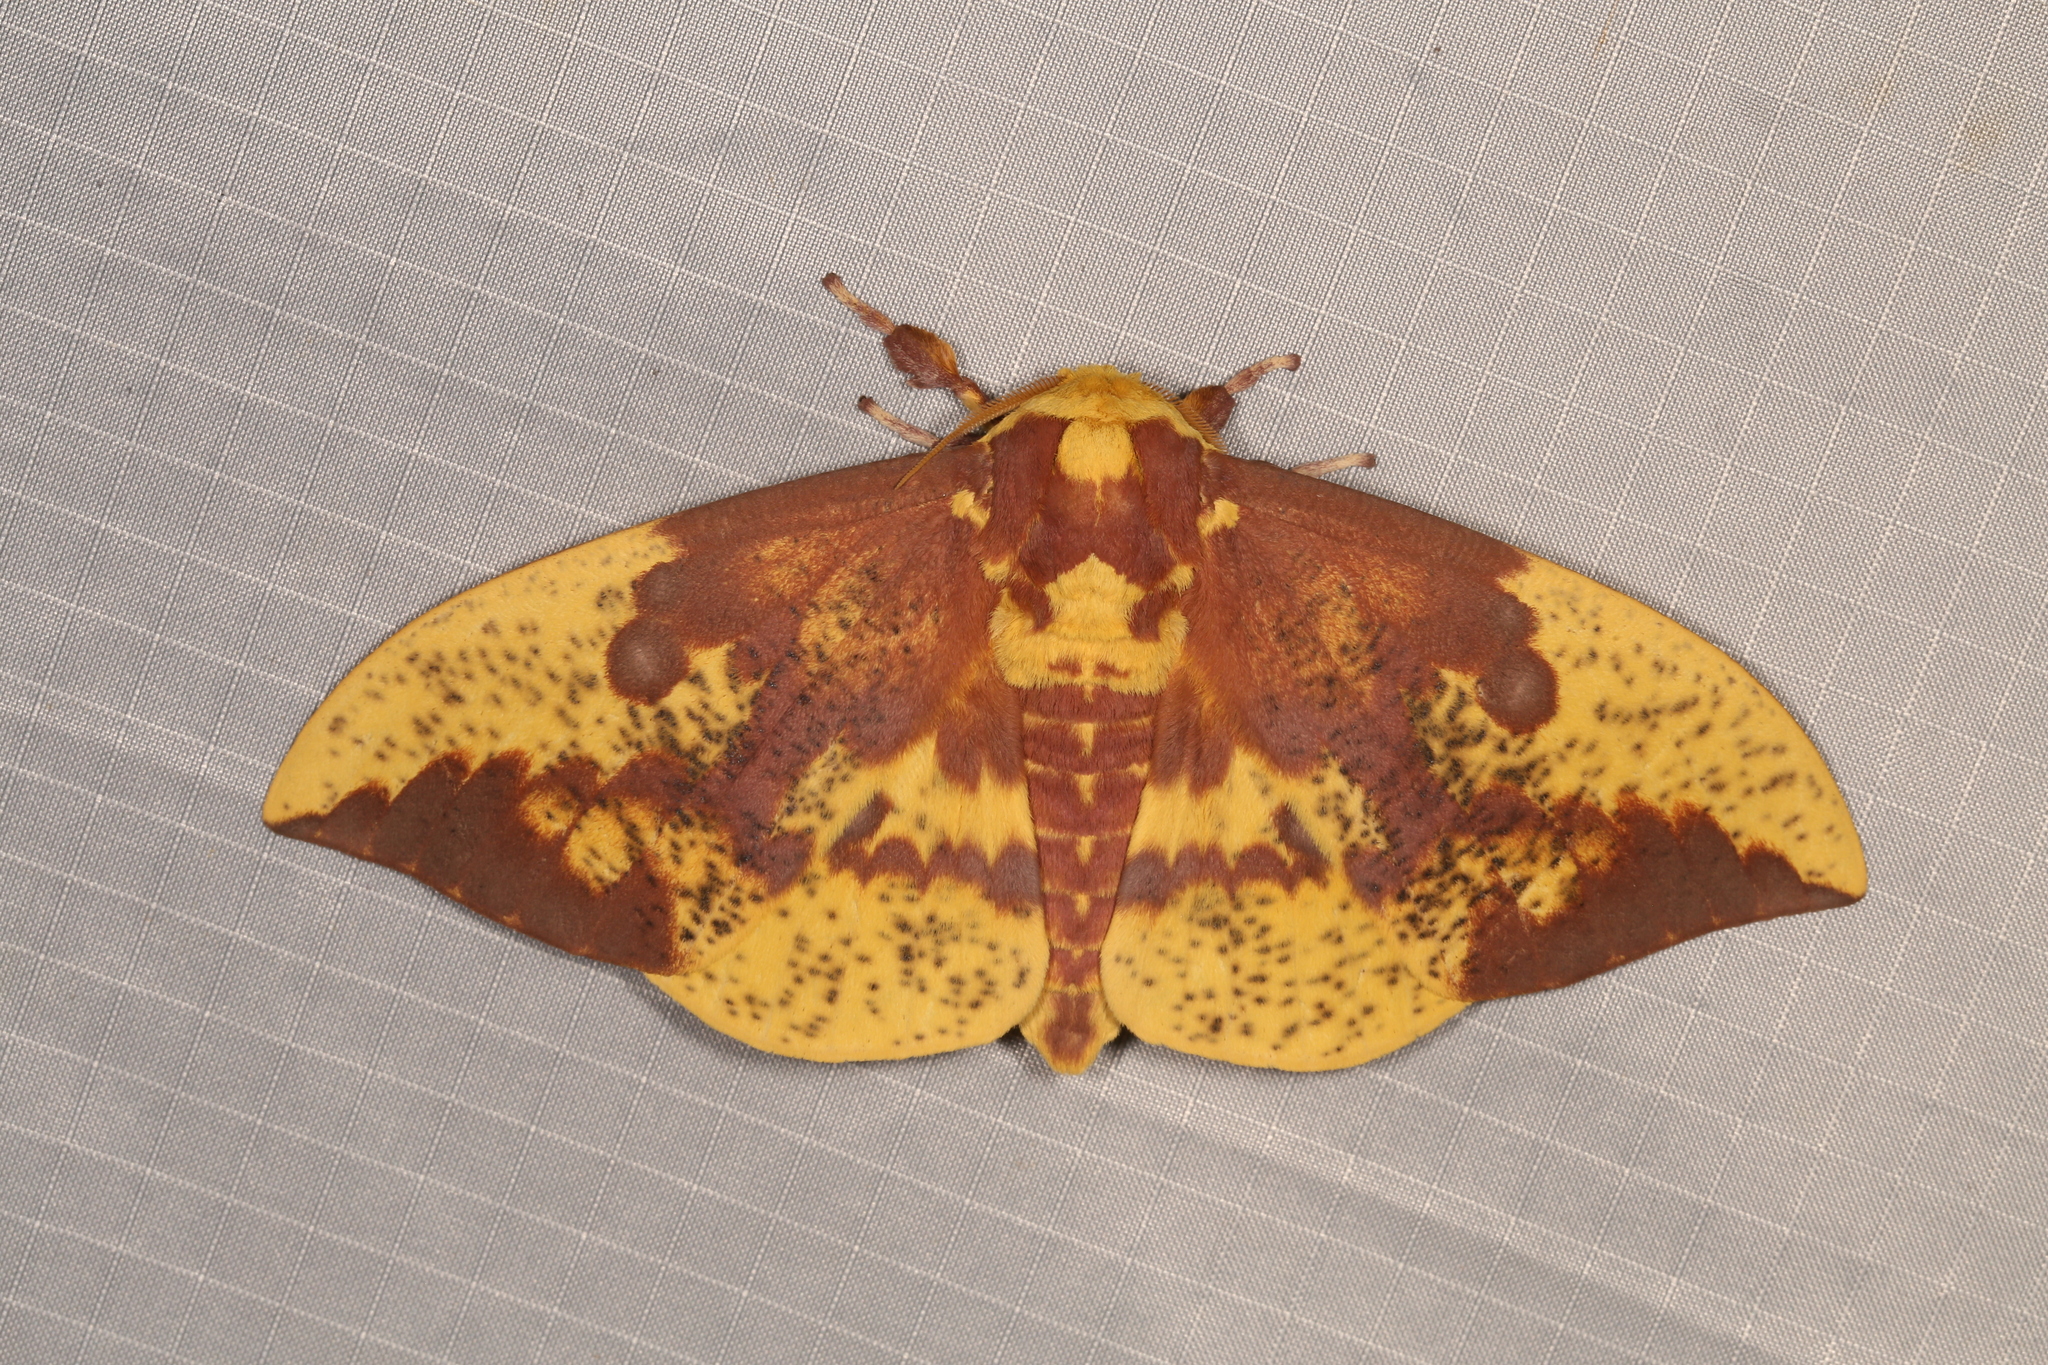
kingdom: Animalia
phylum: Arthropoda
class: Insecta
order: Lepidoptera
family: Saturniidae
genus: Eacles
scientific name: Eacles imperialis
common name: Imperial moth
